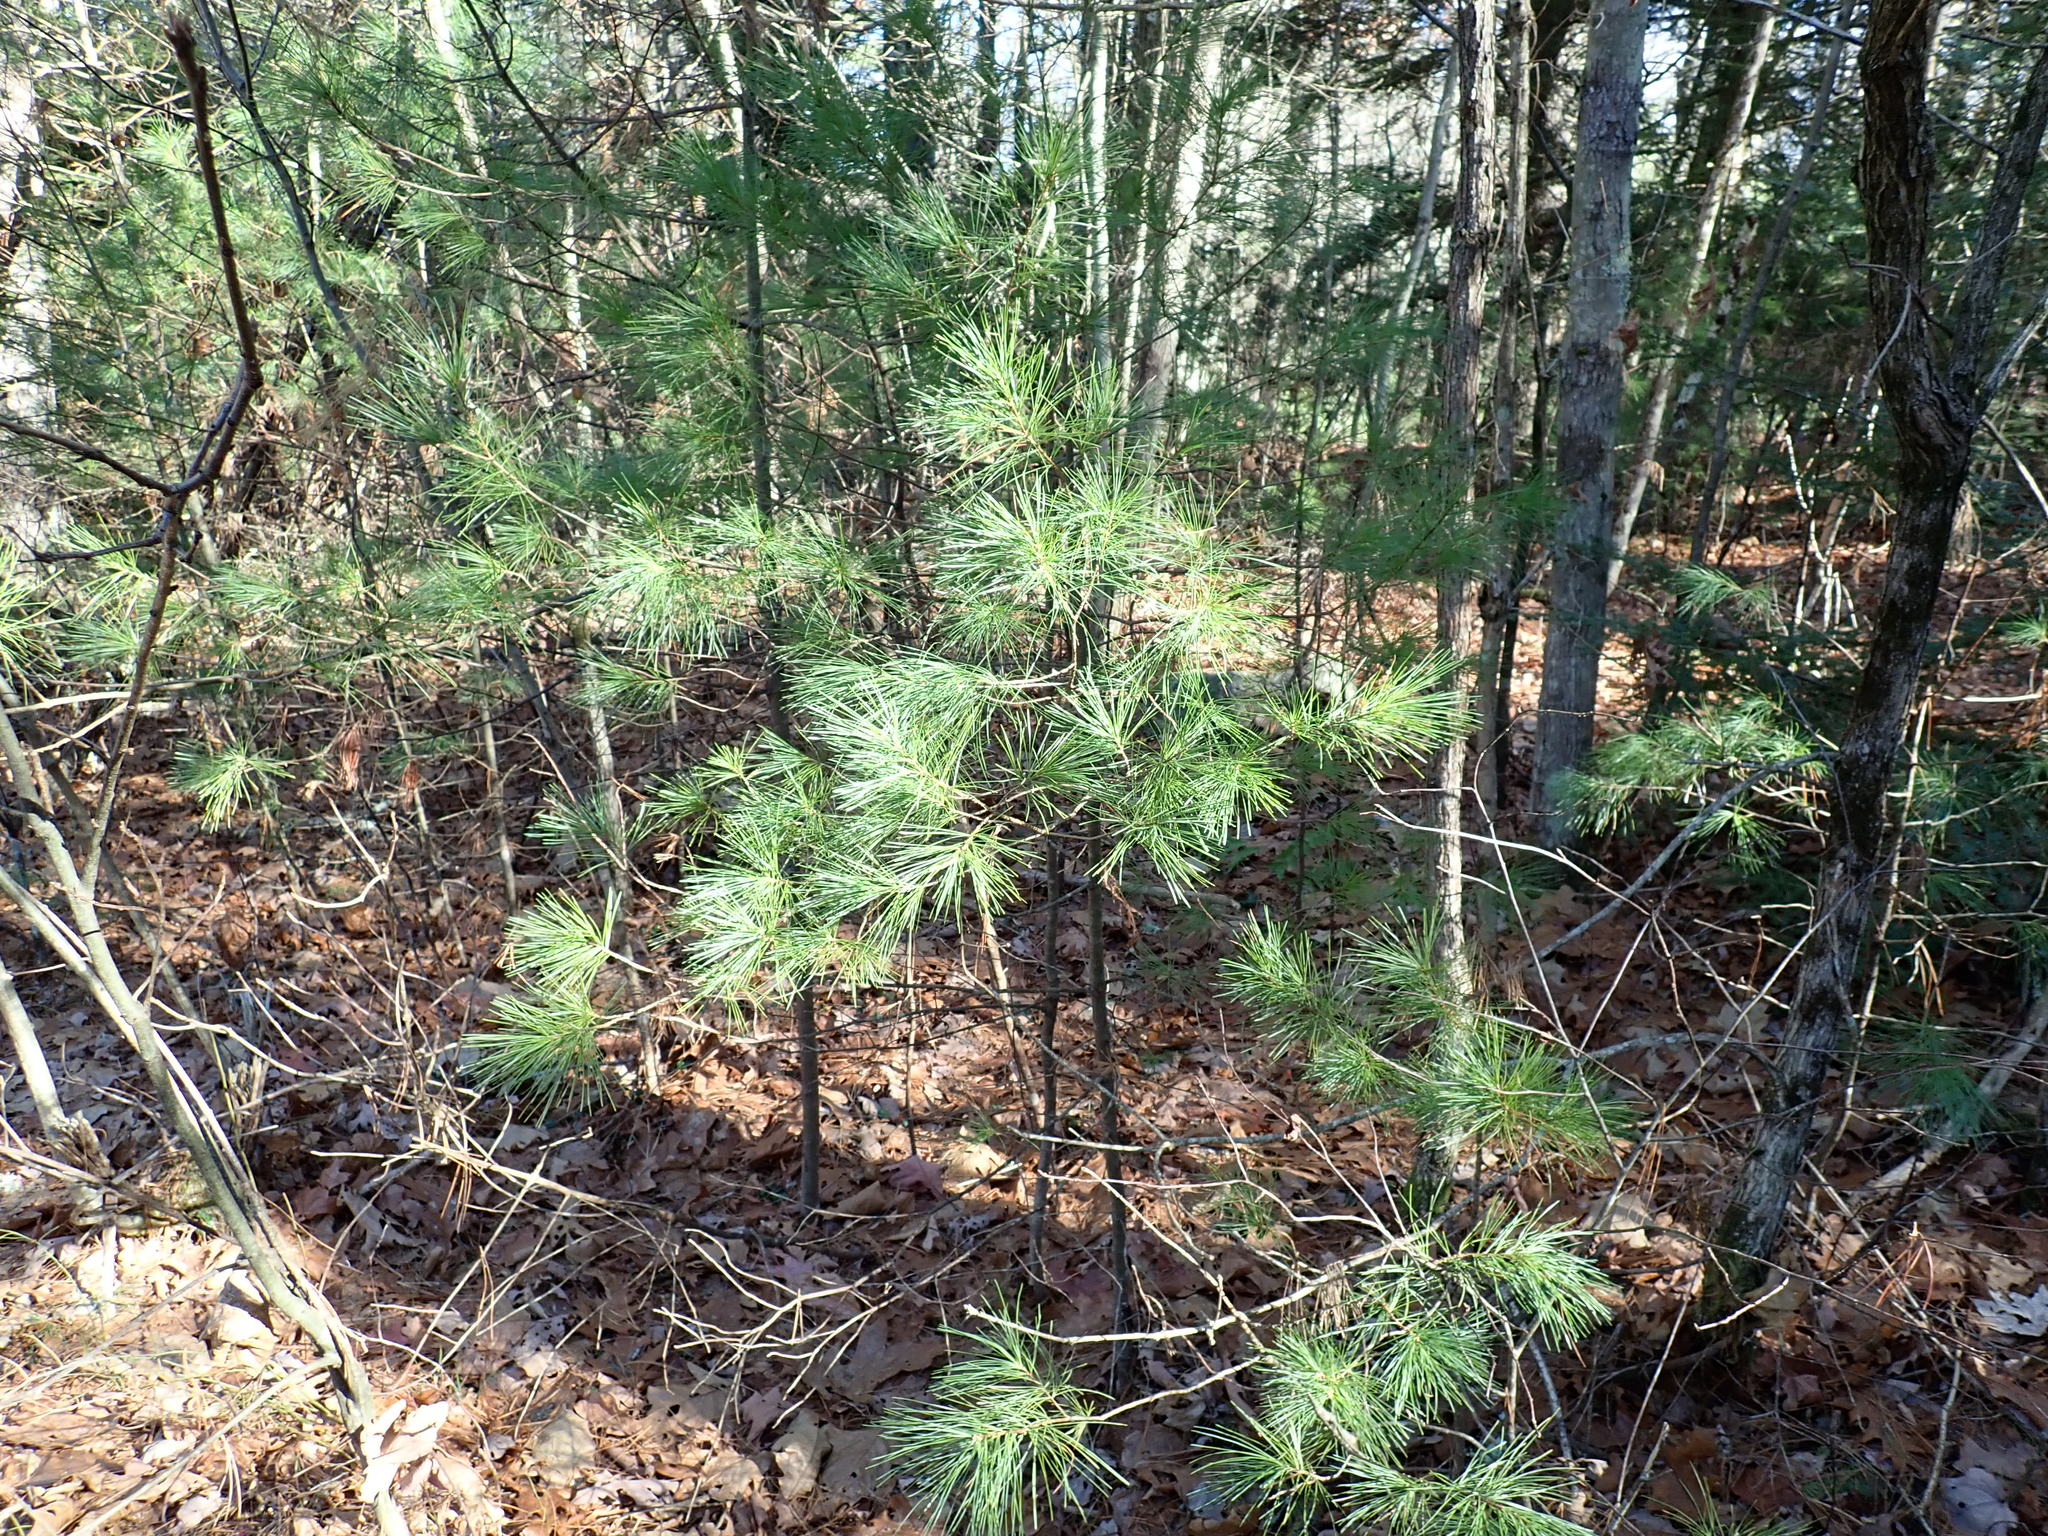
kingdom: Plantae
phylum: Tracheophyta
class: Pinopsida
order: Pinales
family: Pinaceae
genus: Pinus
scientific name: Pinus strobus
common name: Weymouth pine
